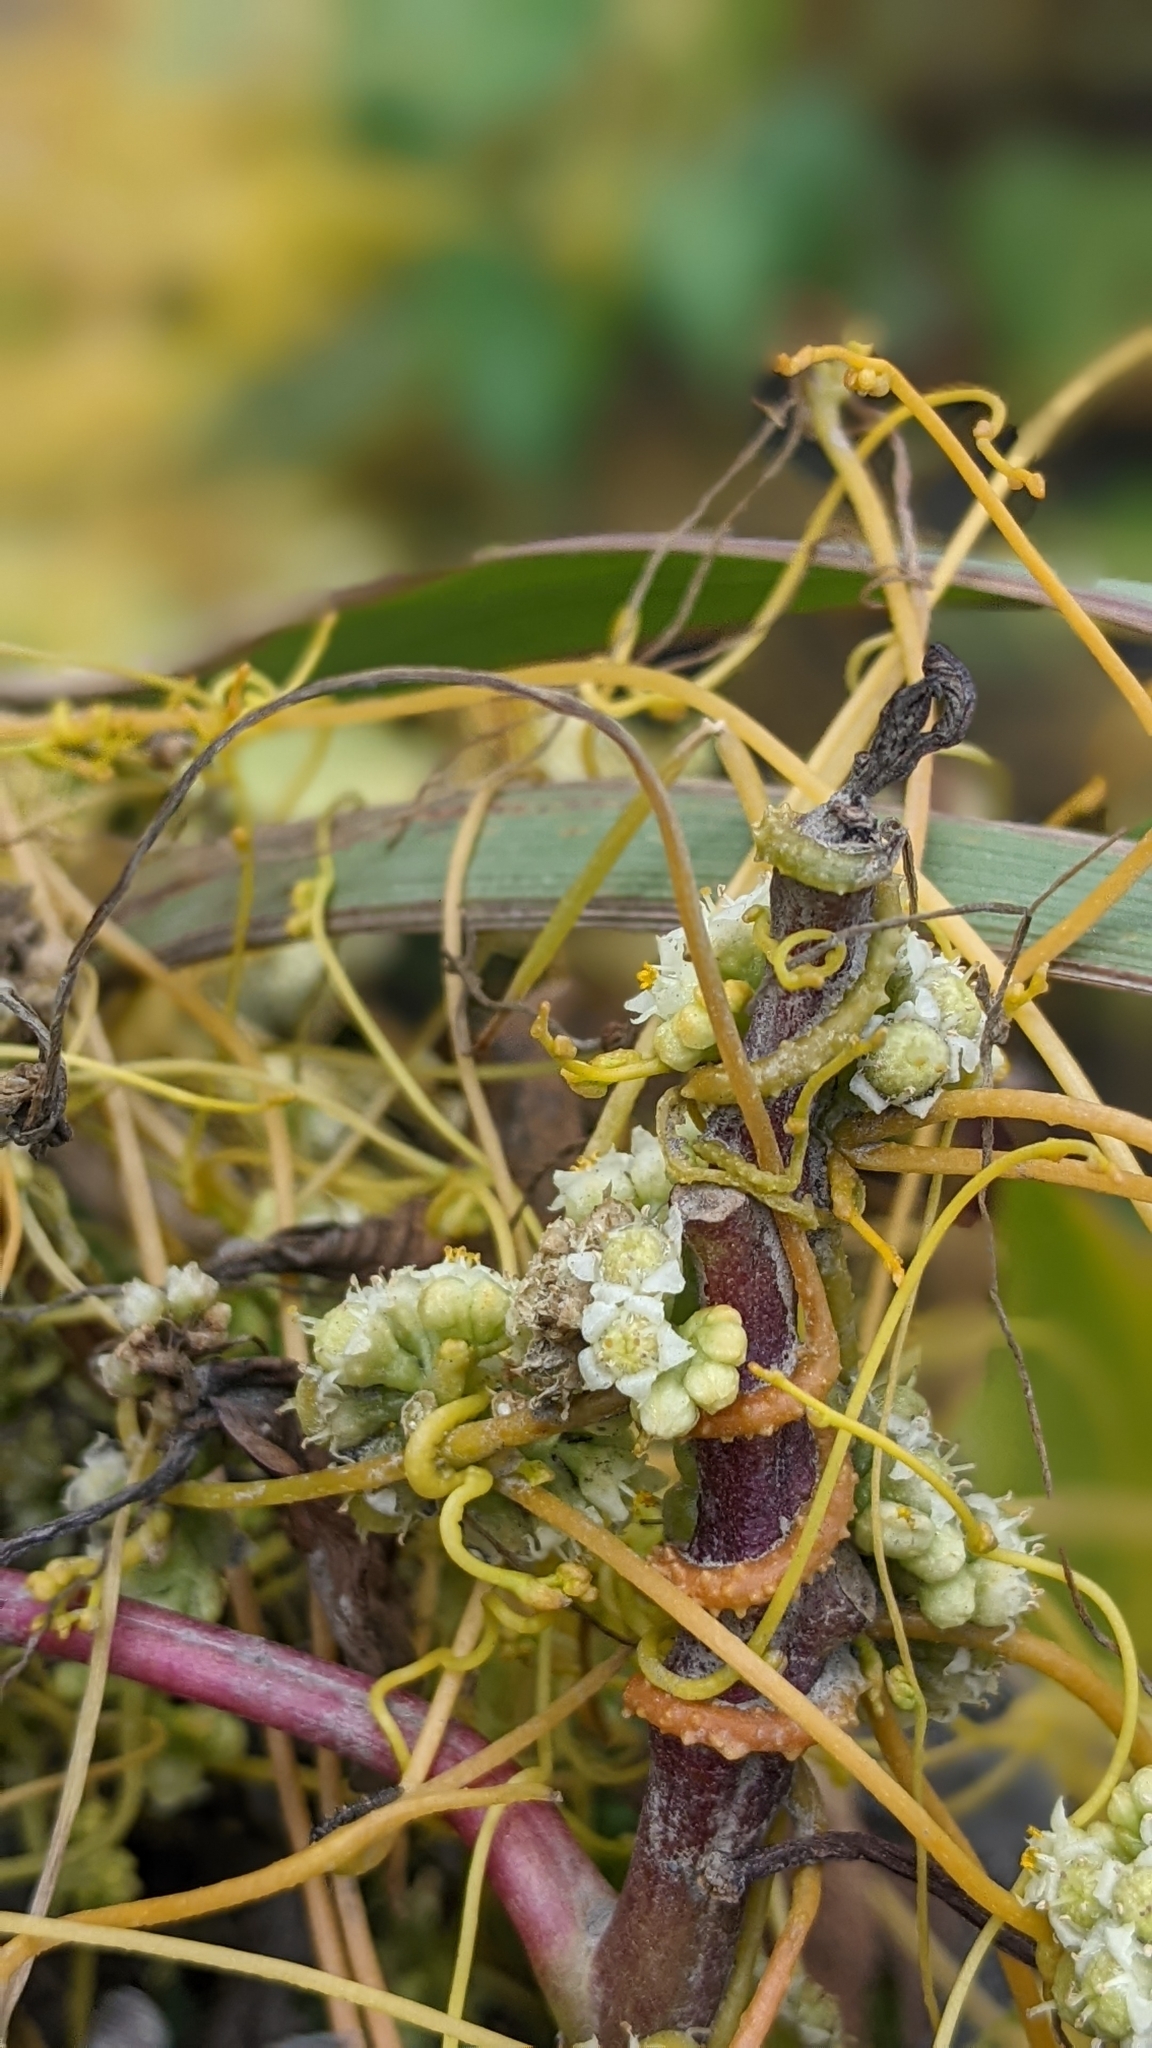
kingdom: Plantae
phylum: Tracheophyta
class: Magnoliopsida
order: Solanales
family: Convolvulaceae
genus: Cuscuta
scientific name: Cuscuta campestris
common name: Yellow dodder
